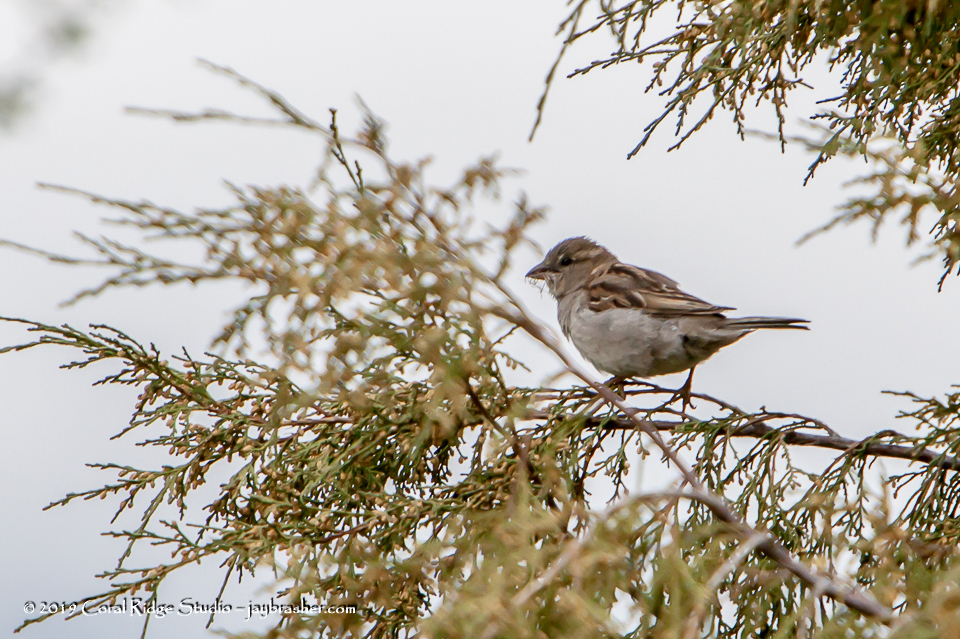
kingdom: Animalia
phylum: Chordata
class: Aves
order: Passeriformes
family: Passeridae
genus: Passer
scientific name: Passer domesticus
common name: House sparrow
